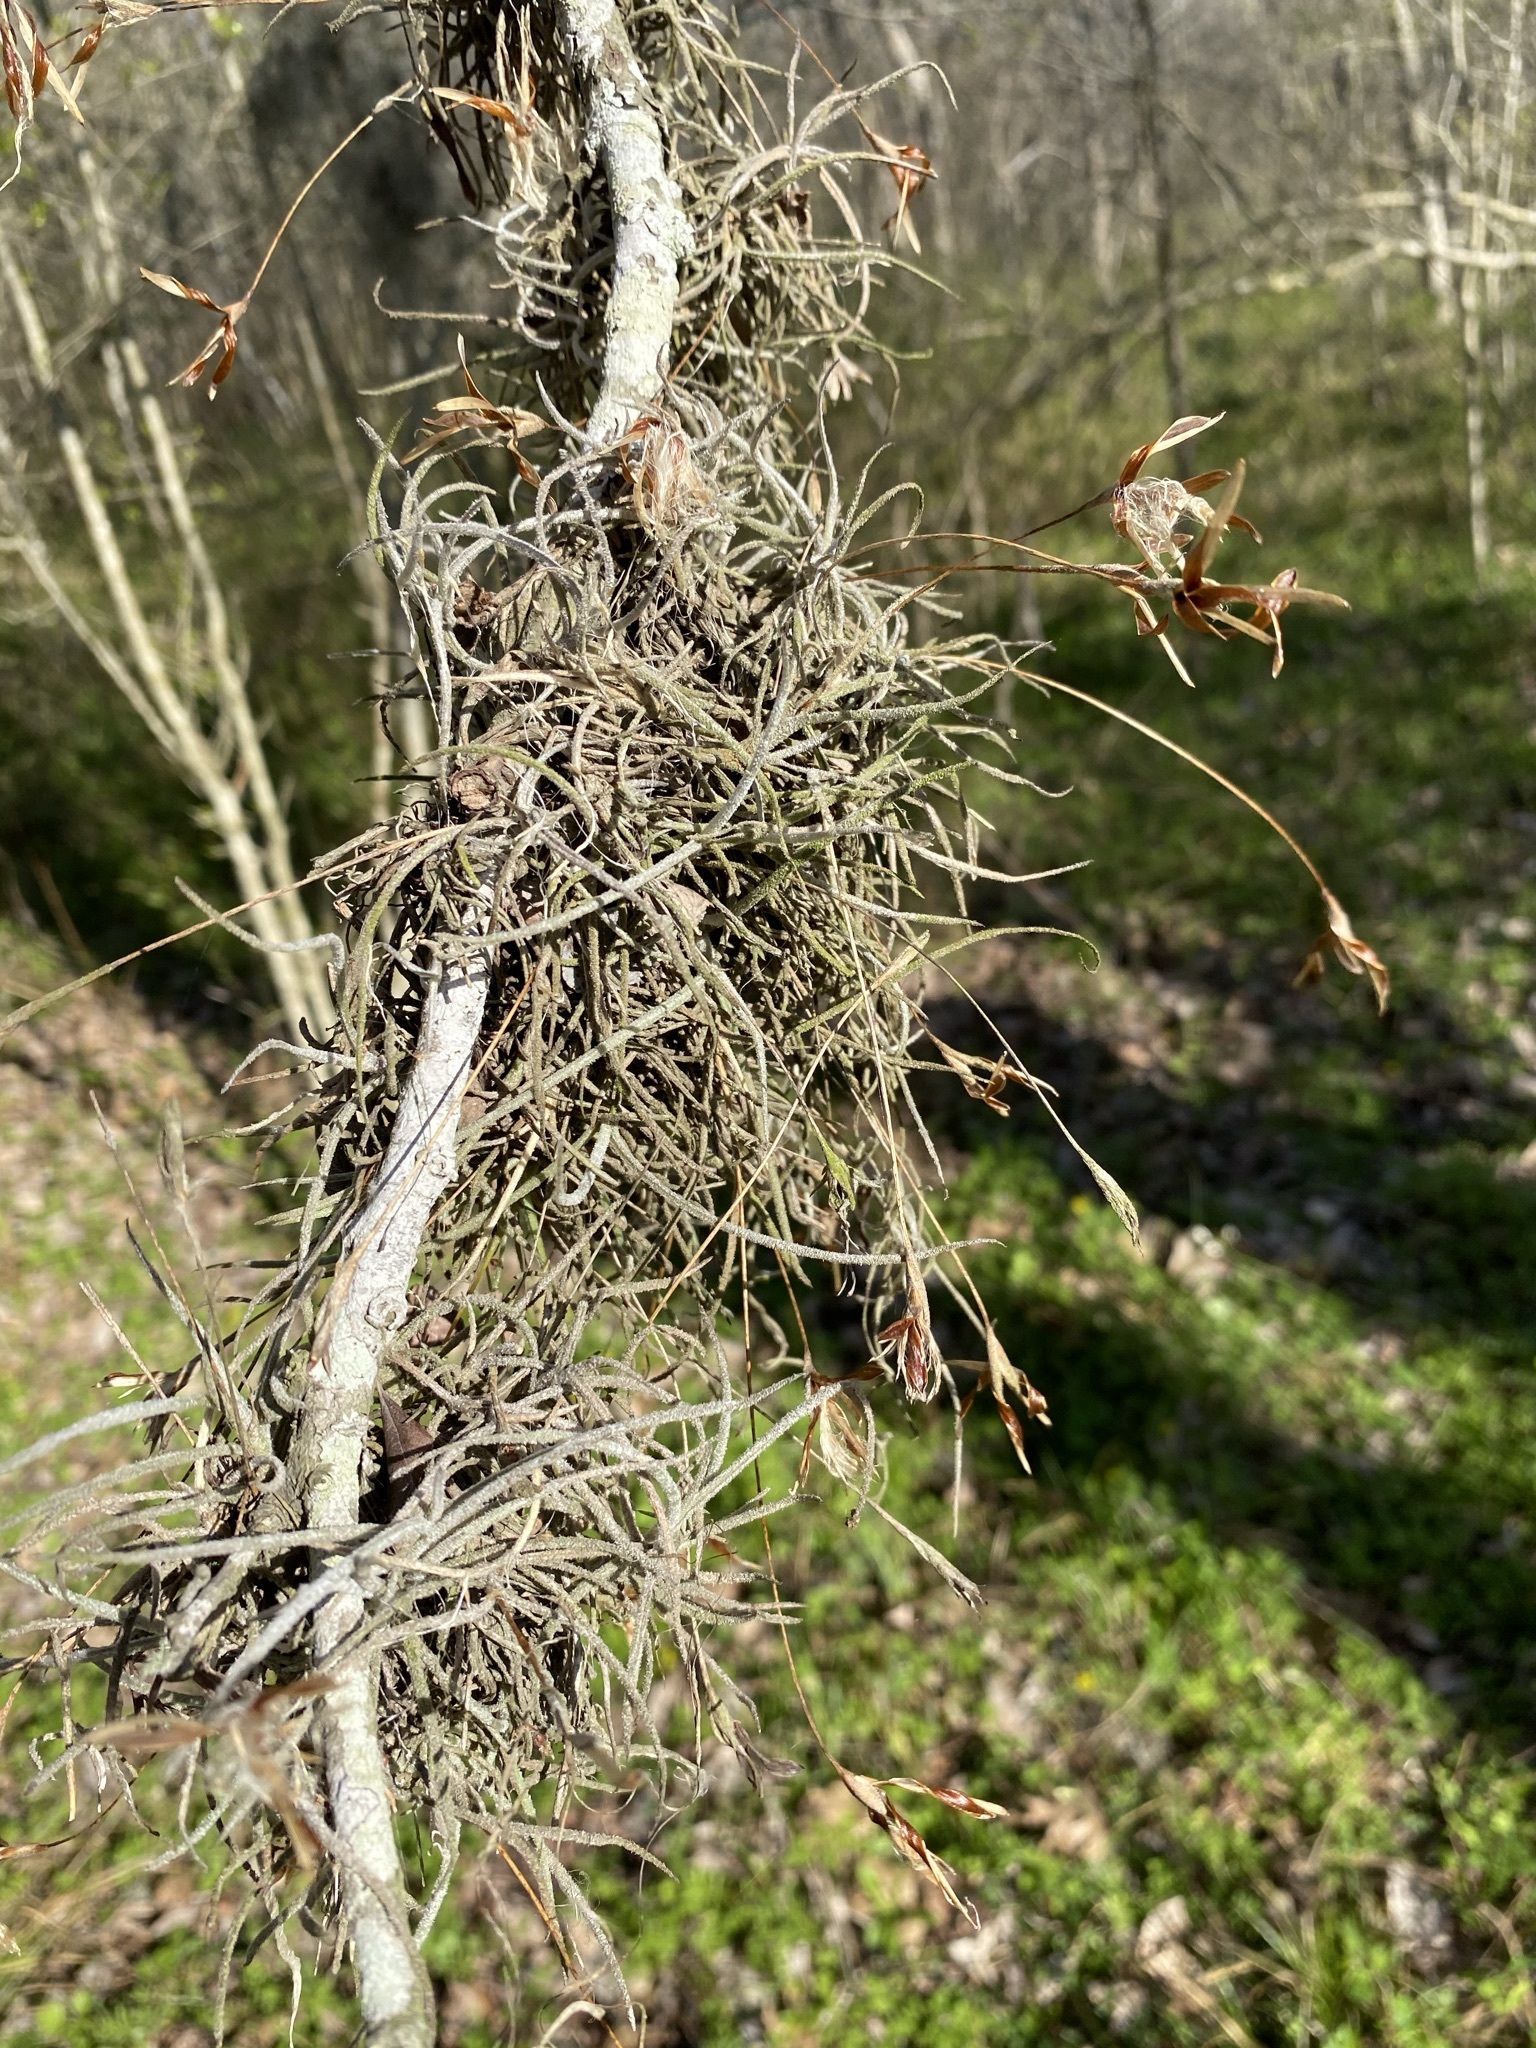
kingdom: Plantae
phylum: Tracheophyta
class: Liliopsida
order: Poales
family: Bromeliaceae
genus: Tillandsia
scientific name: Tillandsia recurvata
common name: Small ballmoss
